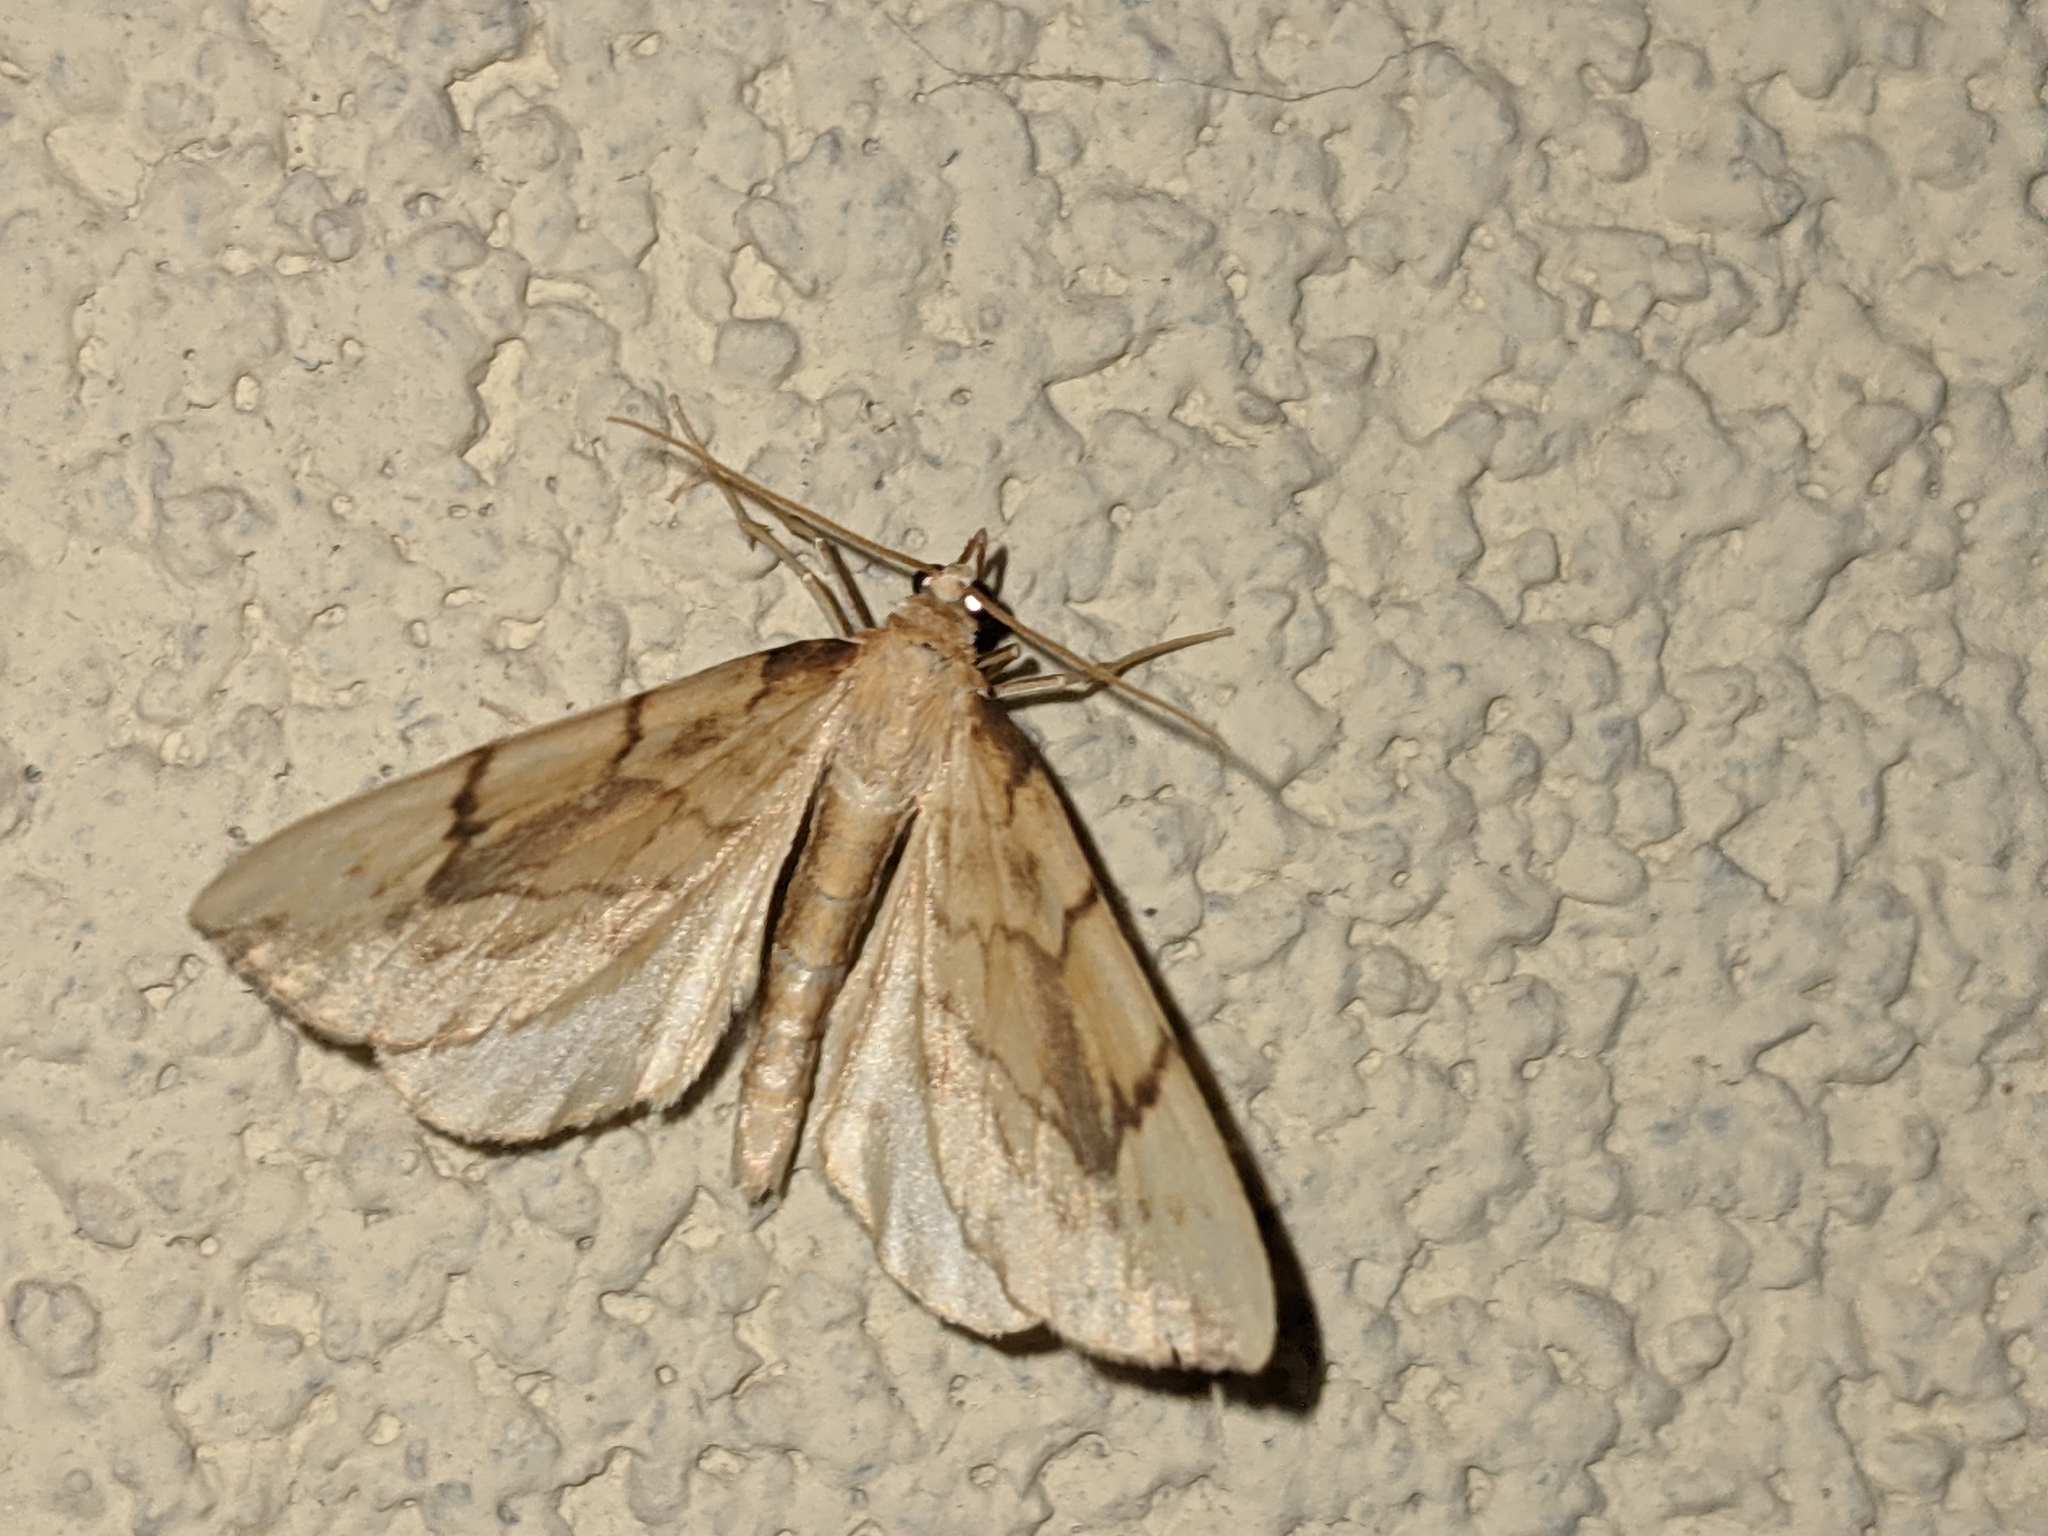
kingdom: Animalia
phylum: Arthropoda
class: Insecta
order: Lepidoptera
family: Geometridae
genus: Eulithis
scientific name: Eulithis pyraliata
